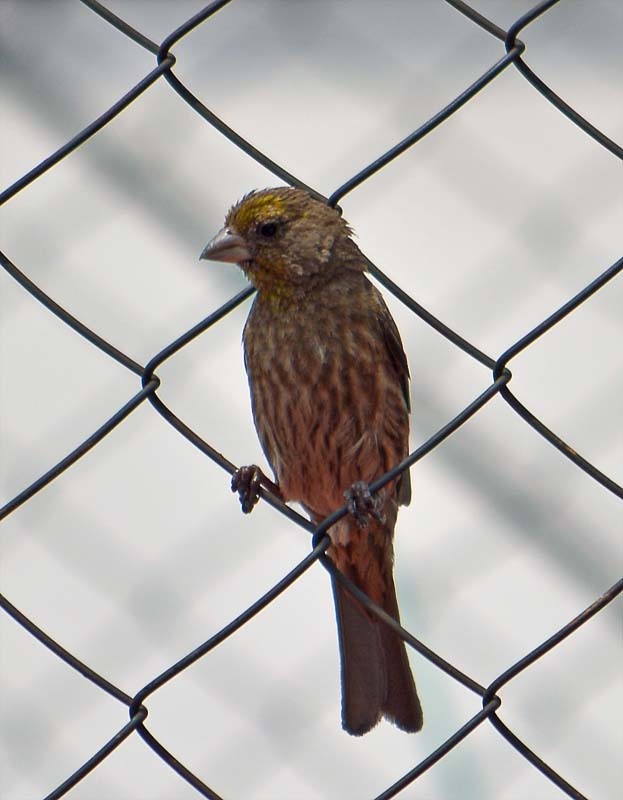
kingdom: Animalia
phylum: Chordata
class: Aves
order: Passeriformes
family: Fringillidae
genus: Haemorhous
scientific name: Haemorhous mexicanus
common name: House finch
